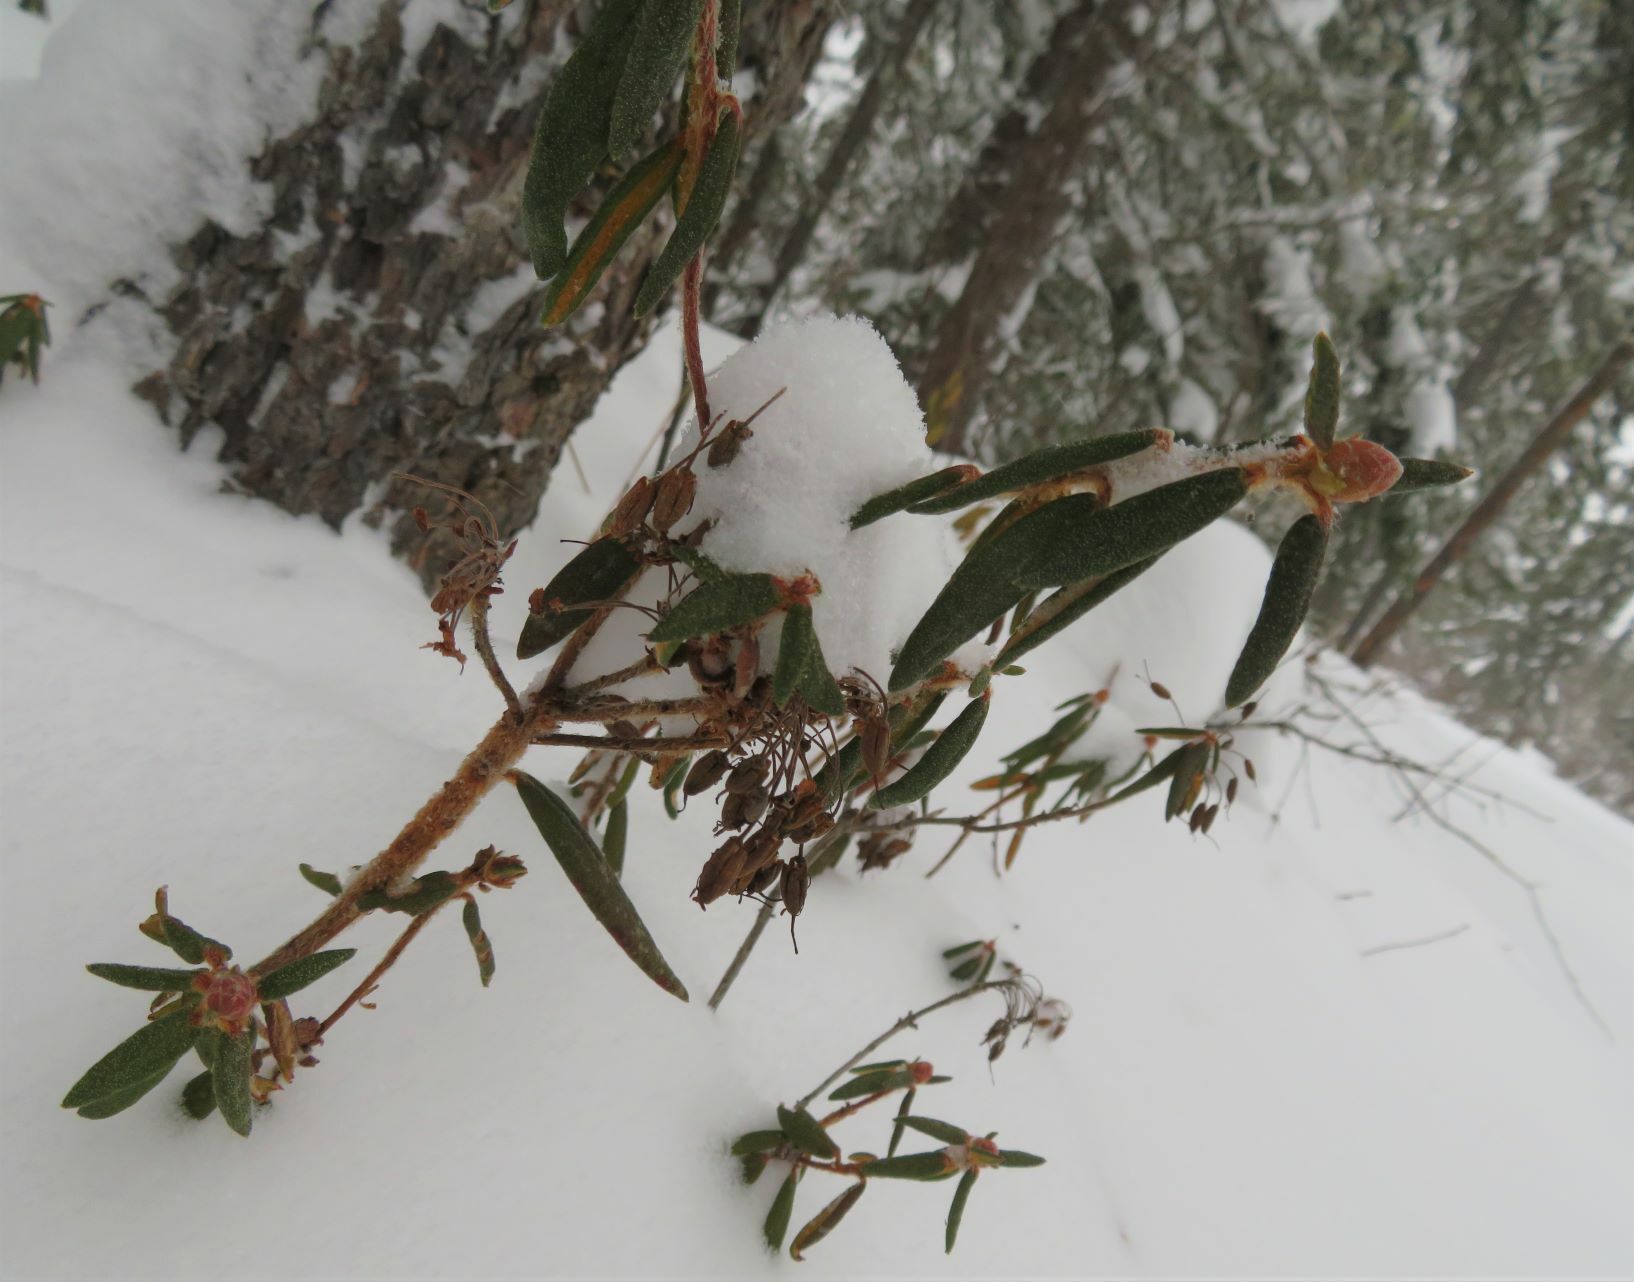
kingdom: Plantae
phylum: Tracheophyta
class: Magnoliopsida
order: Ericales
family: Ericaceae
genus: Rhododendron
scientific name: Rhododendron groenlandicum
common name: Bog labrador tea
